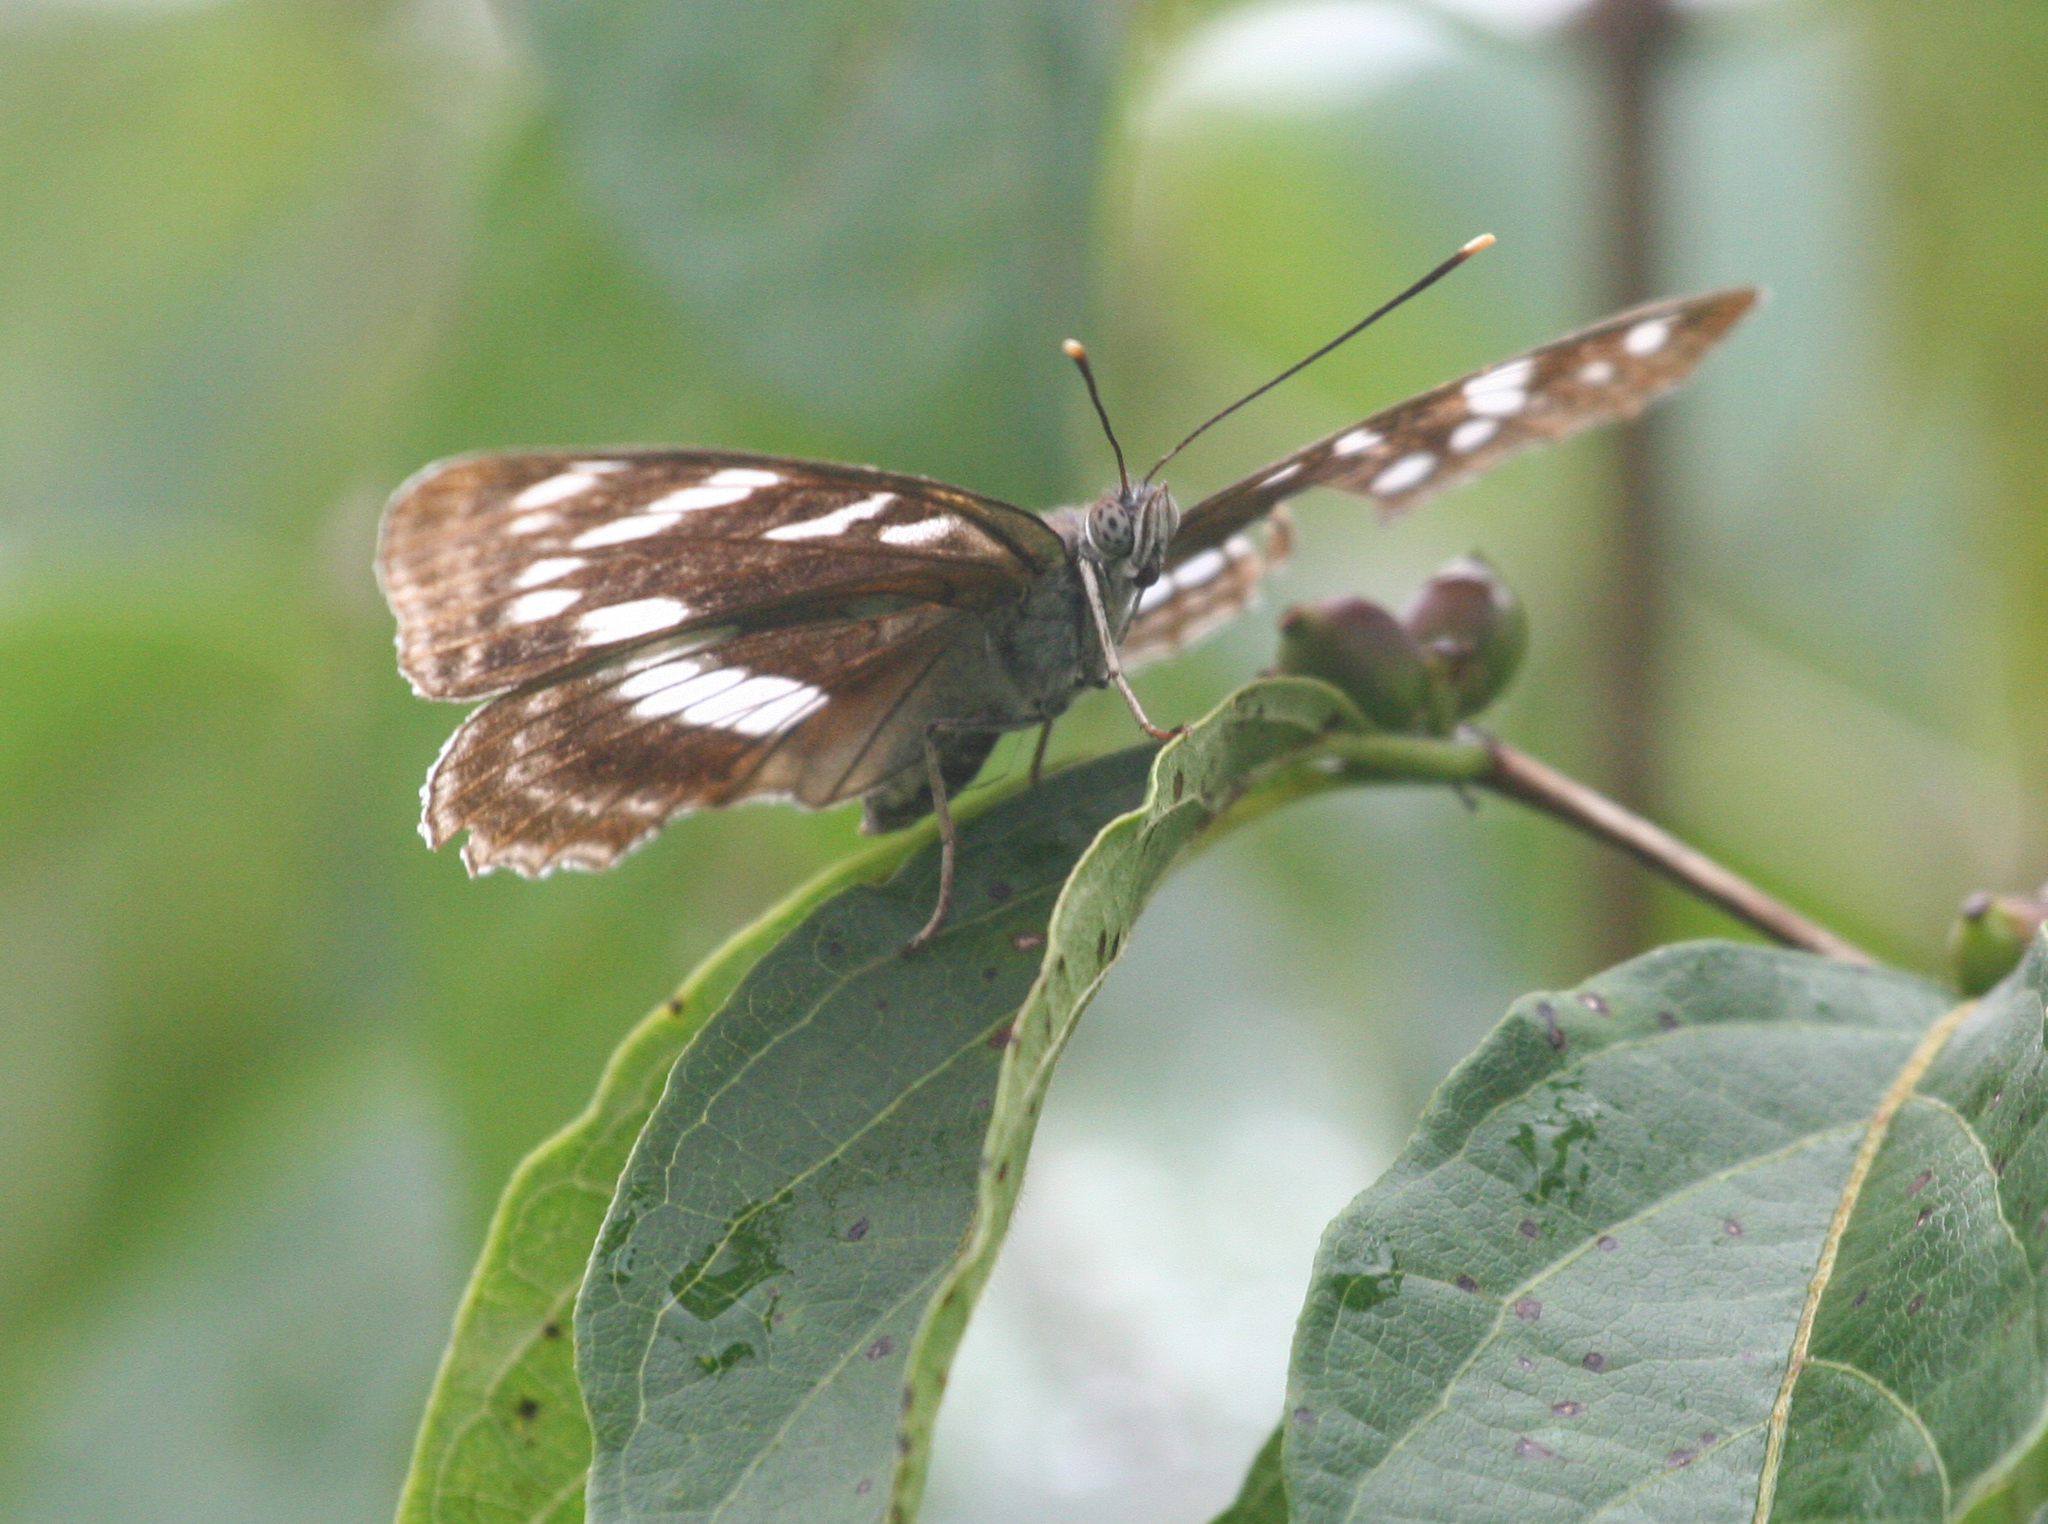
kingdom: Animalia
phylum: Arthropoda
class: Insecta
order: Lepidoptera
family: Nymphalidae
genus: Limenitis
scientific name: Limenitis amphyssa
